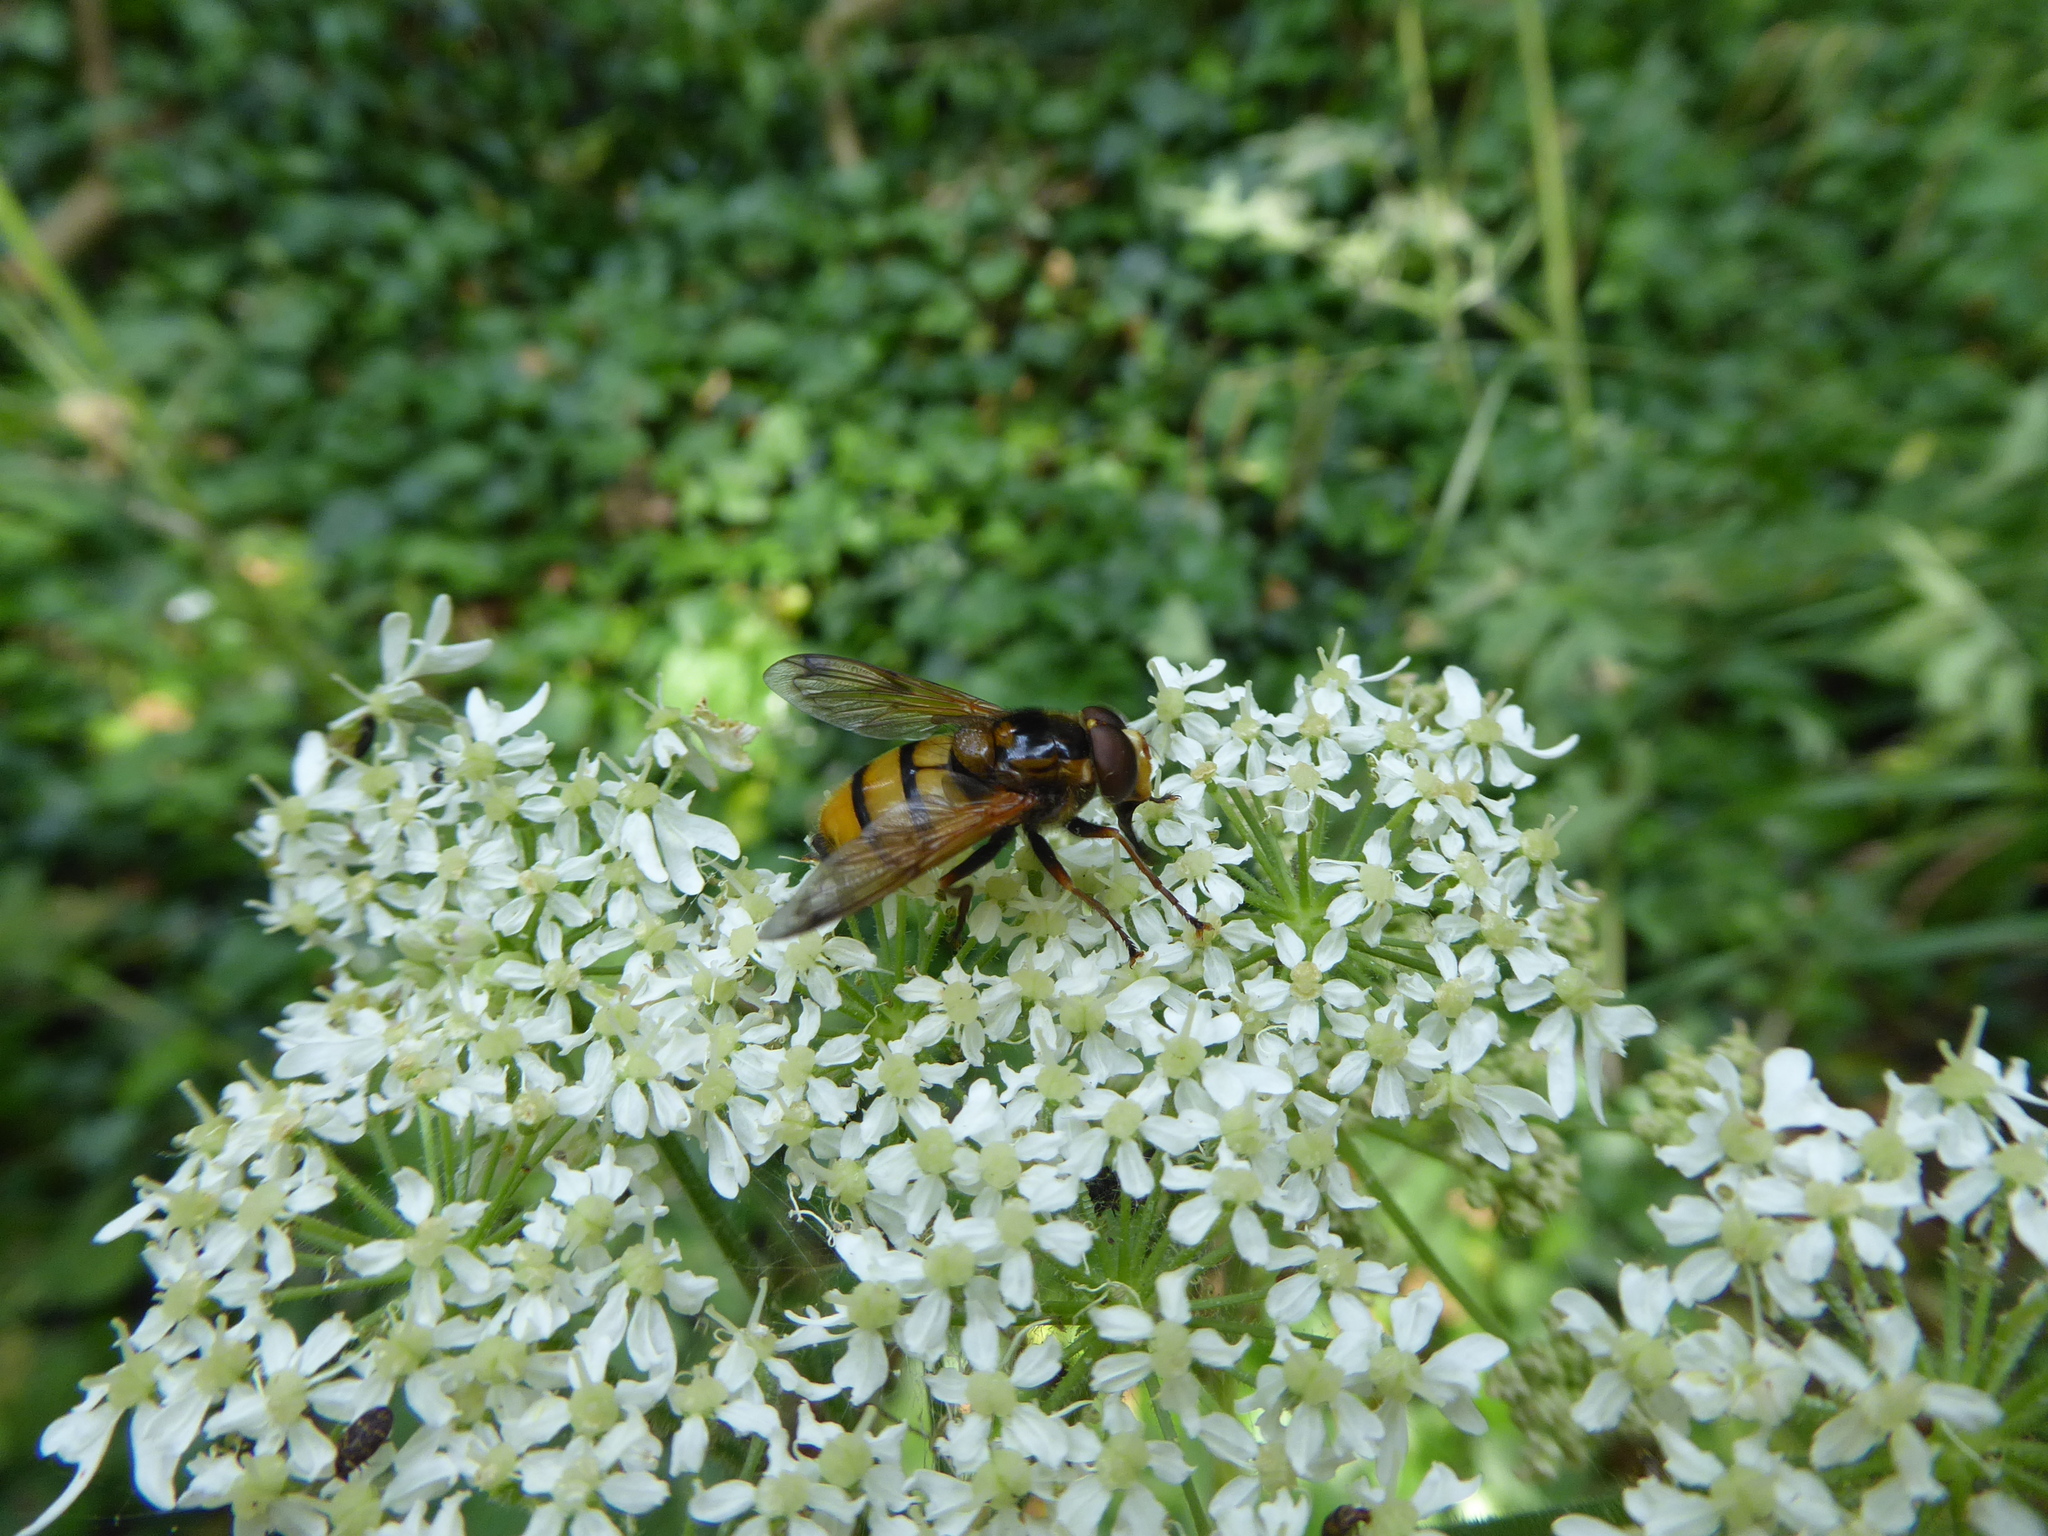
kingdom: Animalia
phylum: Arthropoda
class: Insecta
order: Diptera
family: Syrphidae
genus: Volucella
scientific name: Volucella inanis
